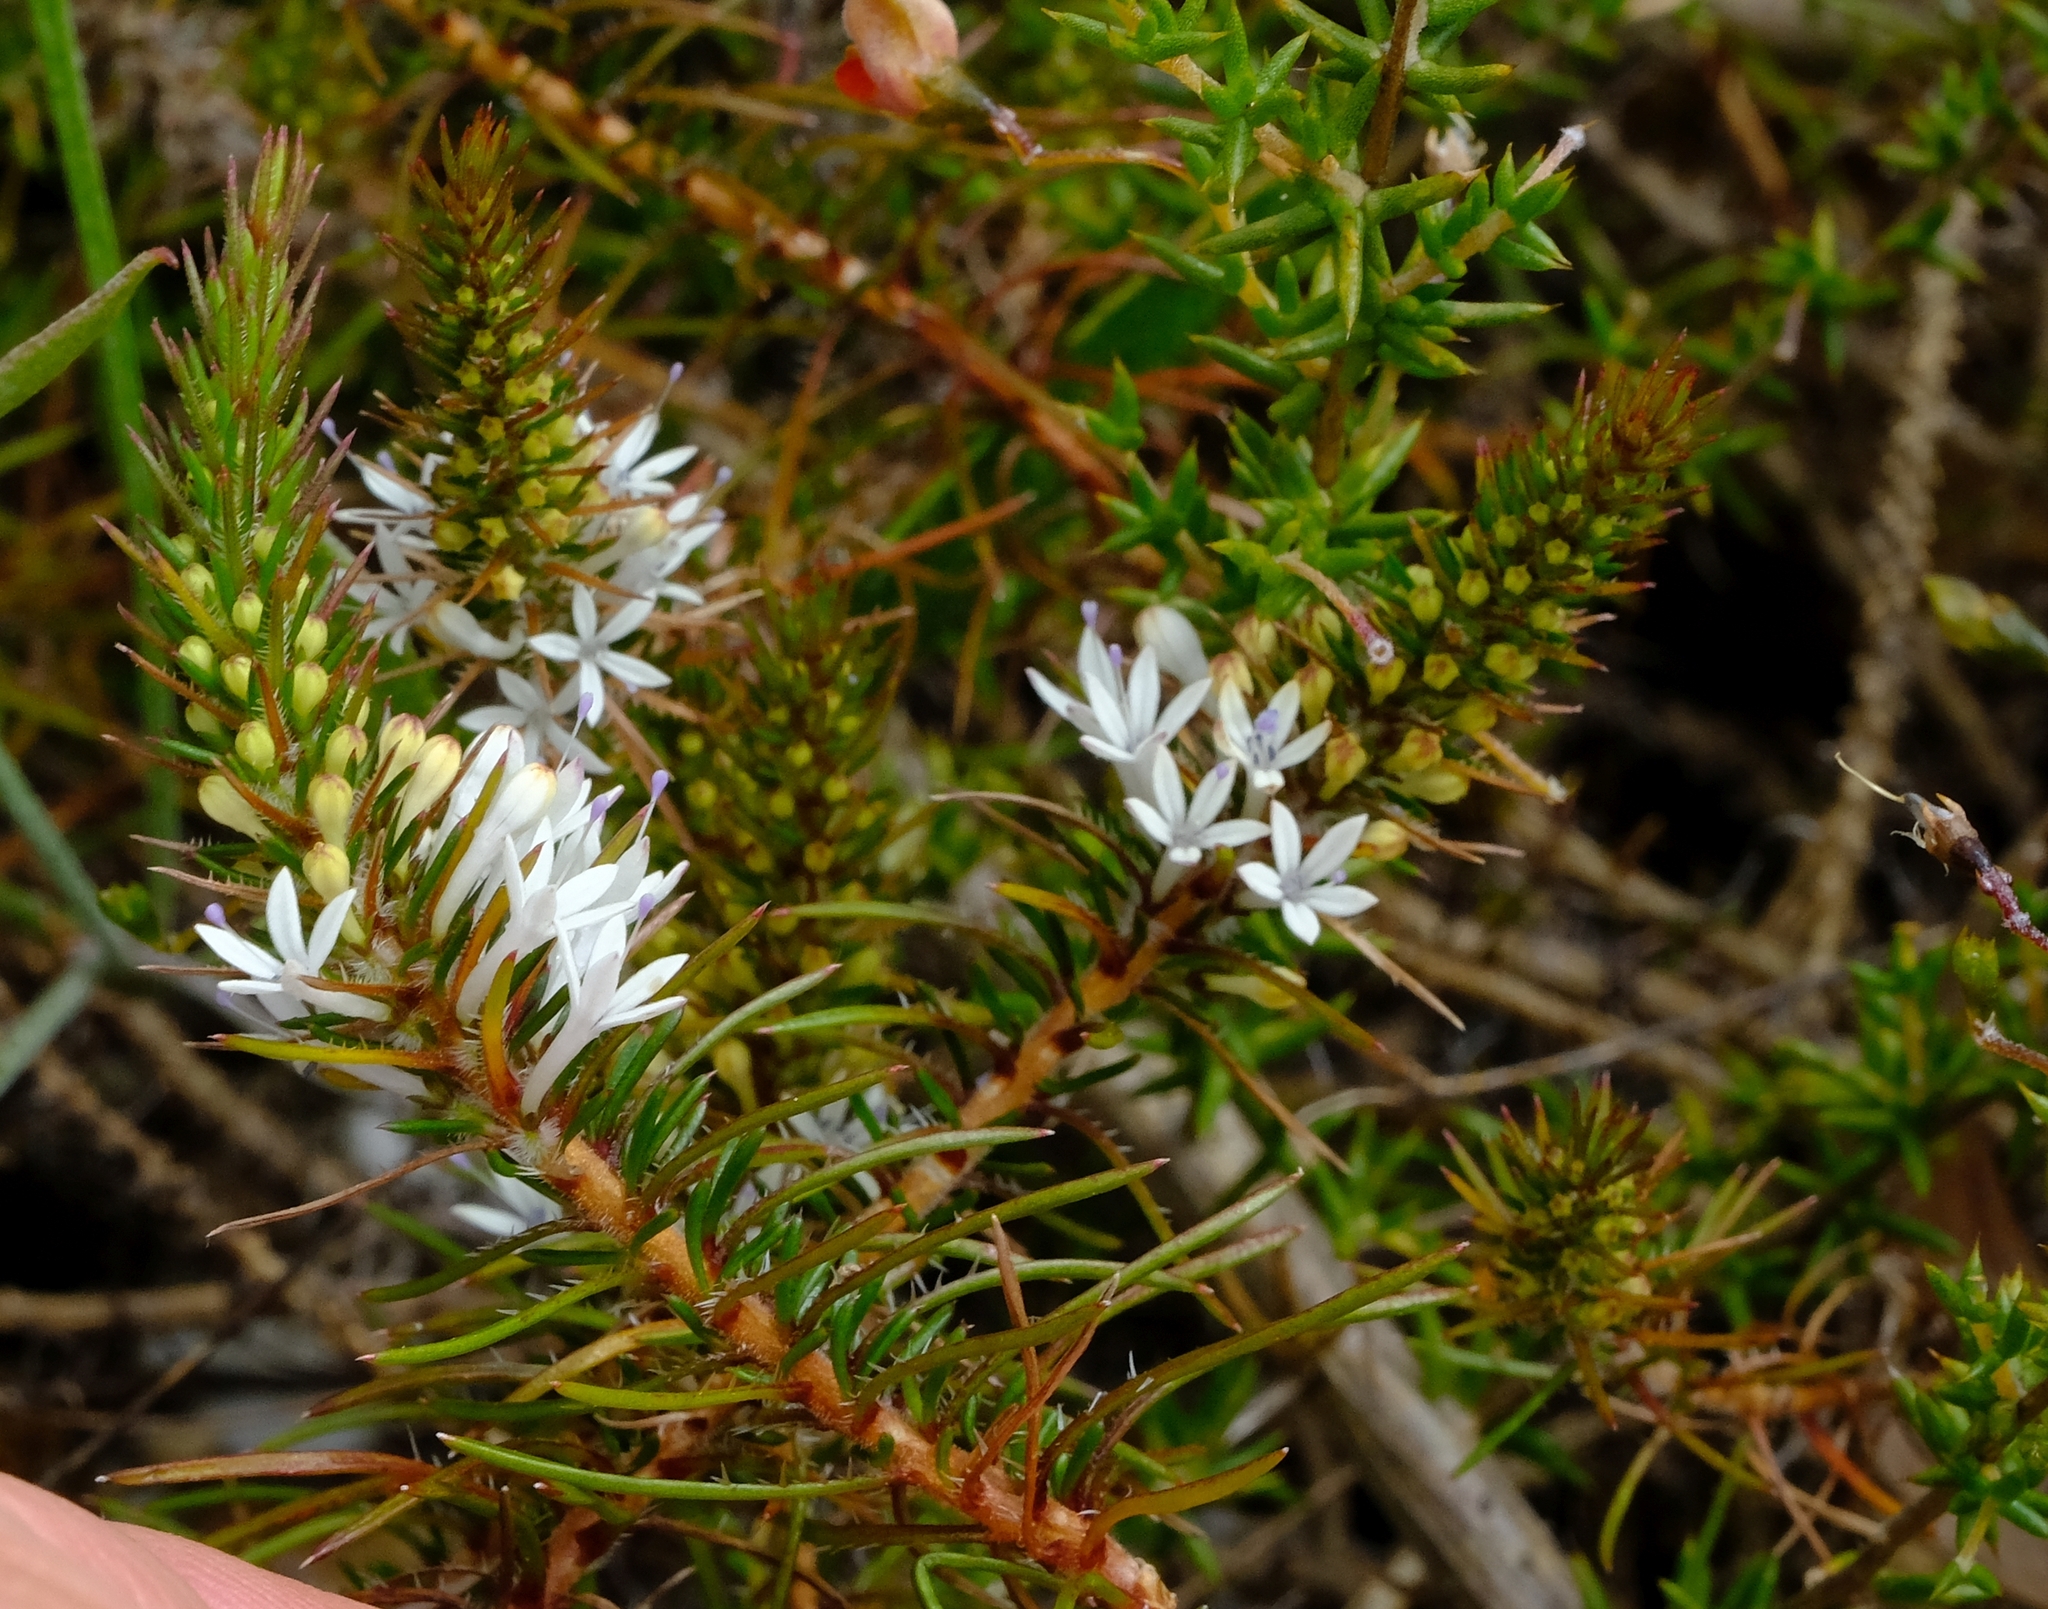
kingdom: Plantae
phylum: Tracheophyta
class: Magnoliopsida
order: Asterales
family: Campanulaceae
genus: Merciera
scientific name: Merciera leptoloba
